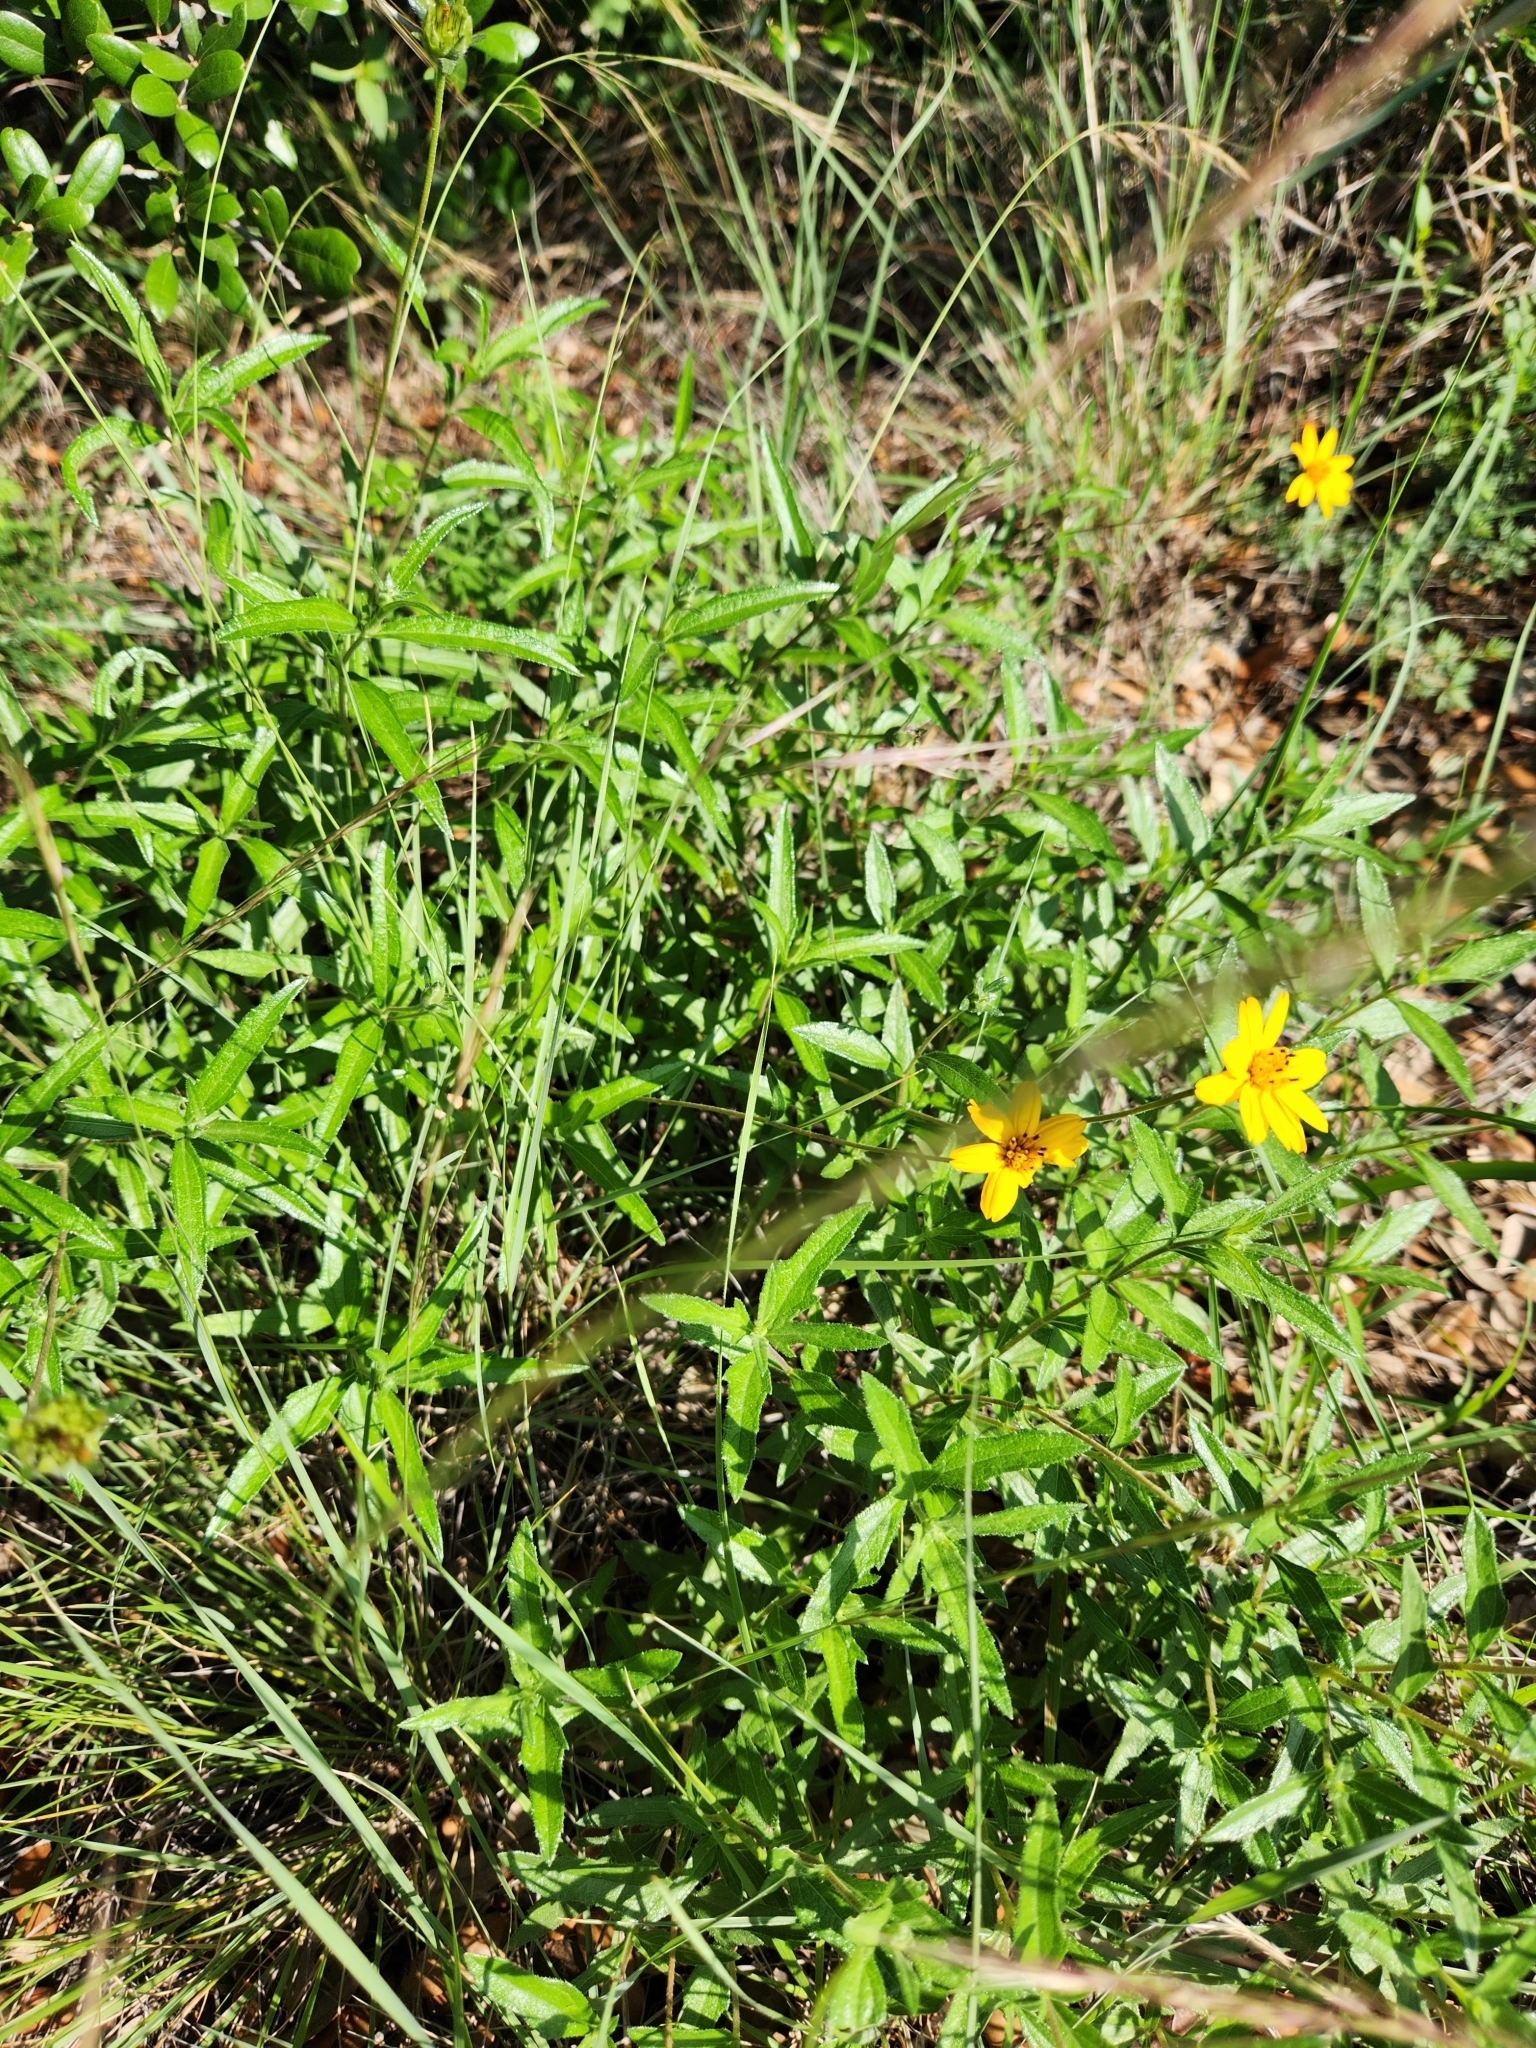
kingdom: Plantae
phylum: Tracheophyta
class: Magnoliopsida
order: Asterales
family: Asteraceae
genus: Wedelia
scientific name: Wedelia acapulcensis
